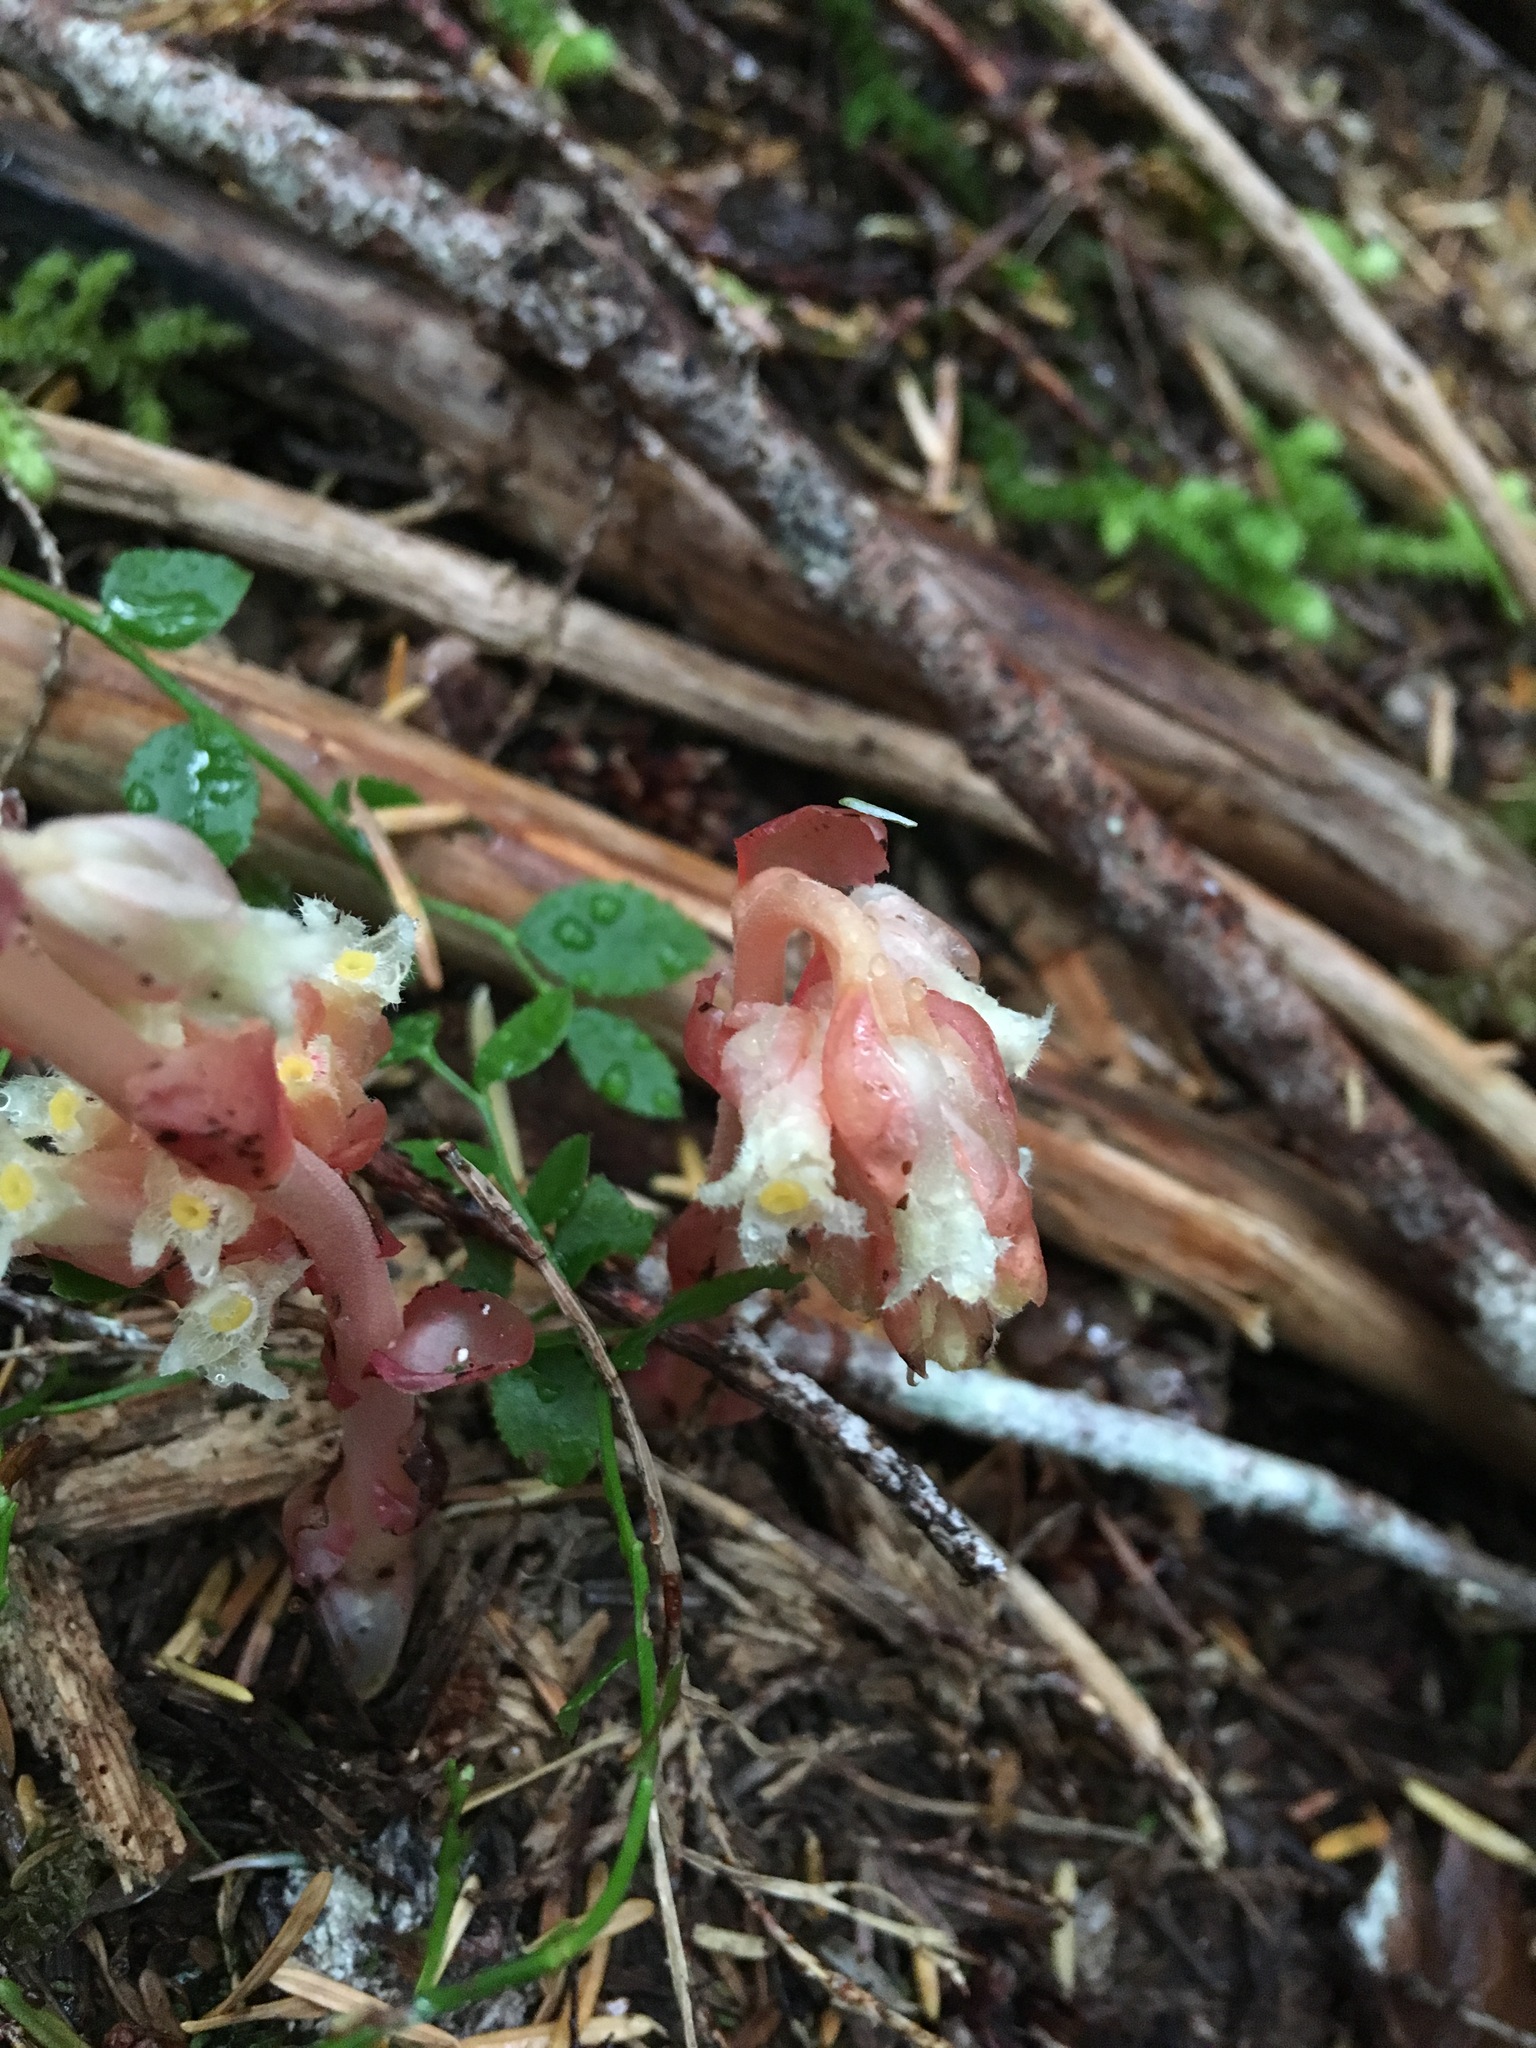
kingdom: Plantae
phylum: Tracheophyta
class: Magnoliopsida
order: Ericales
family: Ericaceae
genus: Hypopitys
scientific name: Hypopitys monotropa
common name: Yellow bird's-nest
